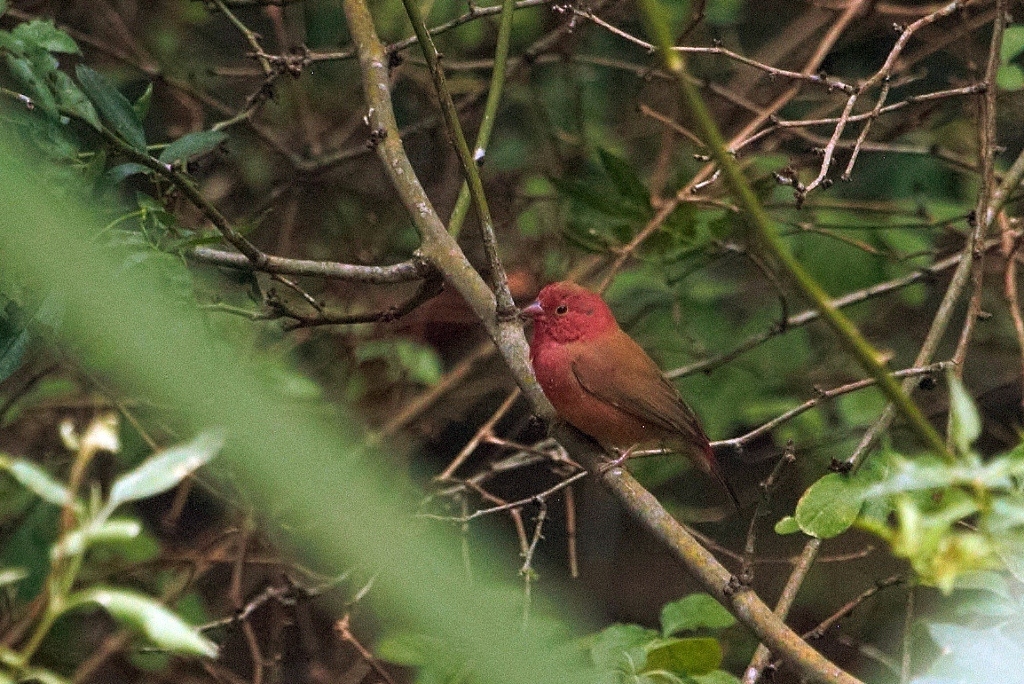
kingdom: Animalia
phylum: Chordata
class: Aves
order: Passeriformes
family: Estrildidae
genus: Lagonosticta
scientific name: Lagonosticta senegala
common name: Red-billed firefinch
